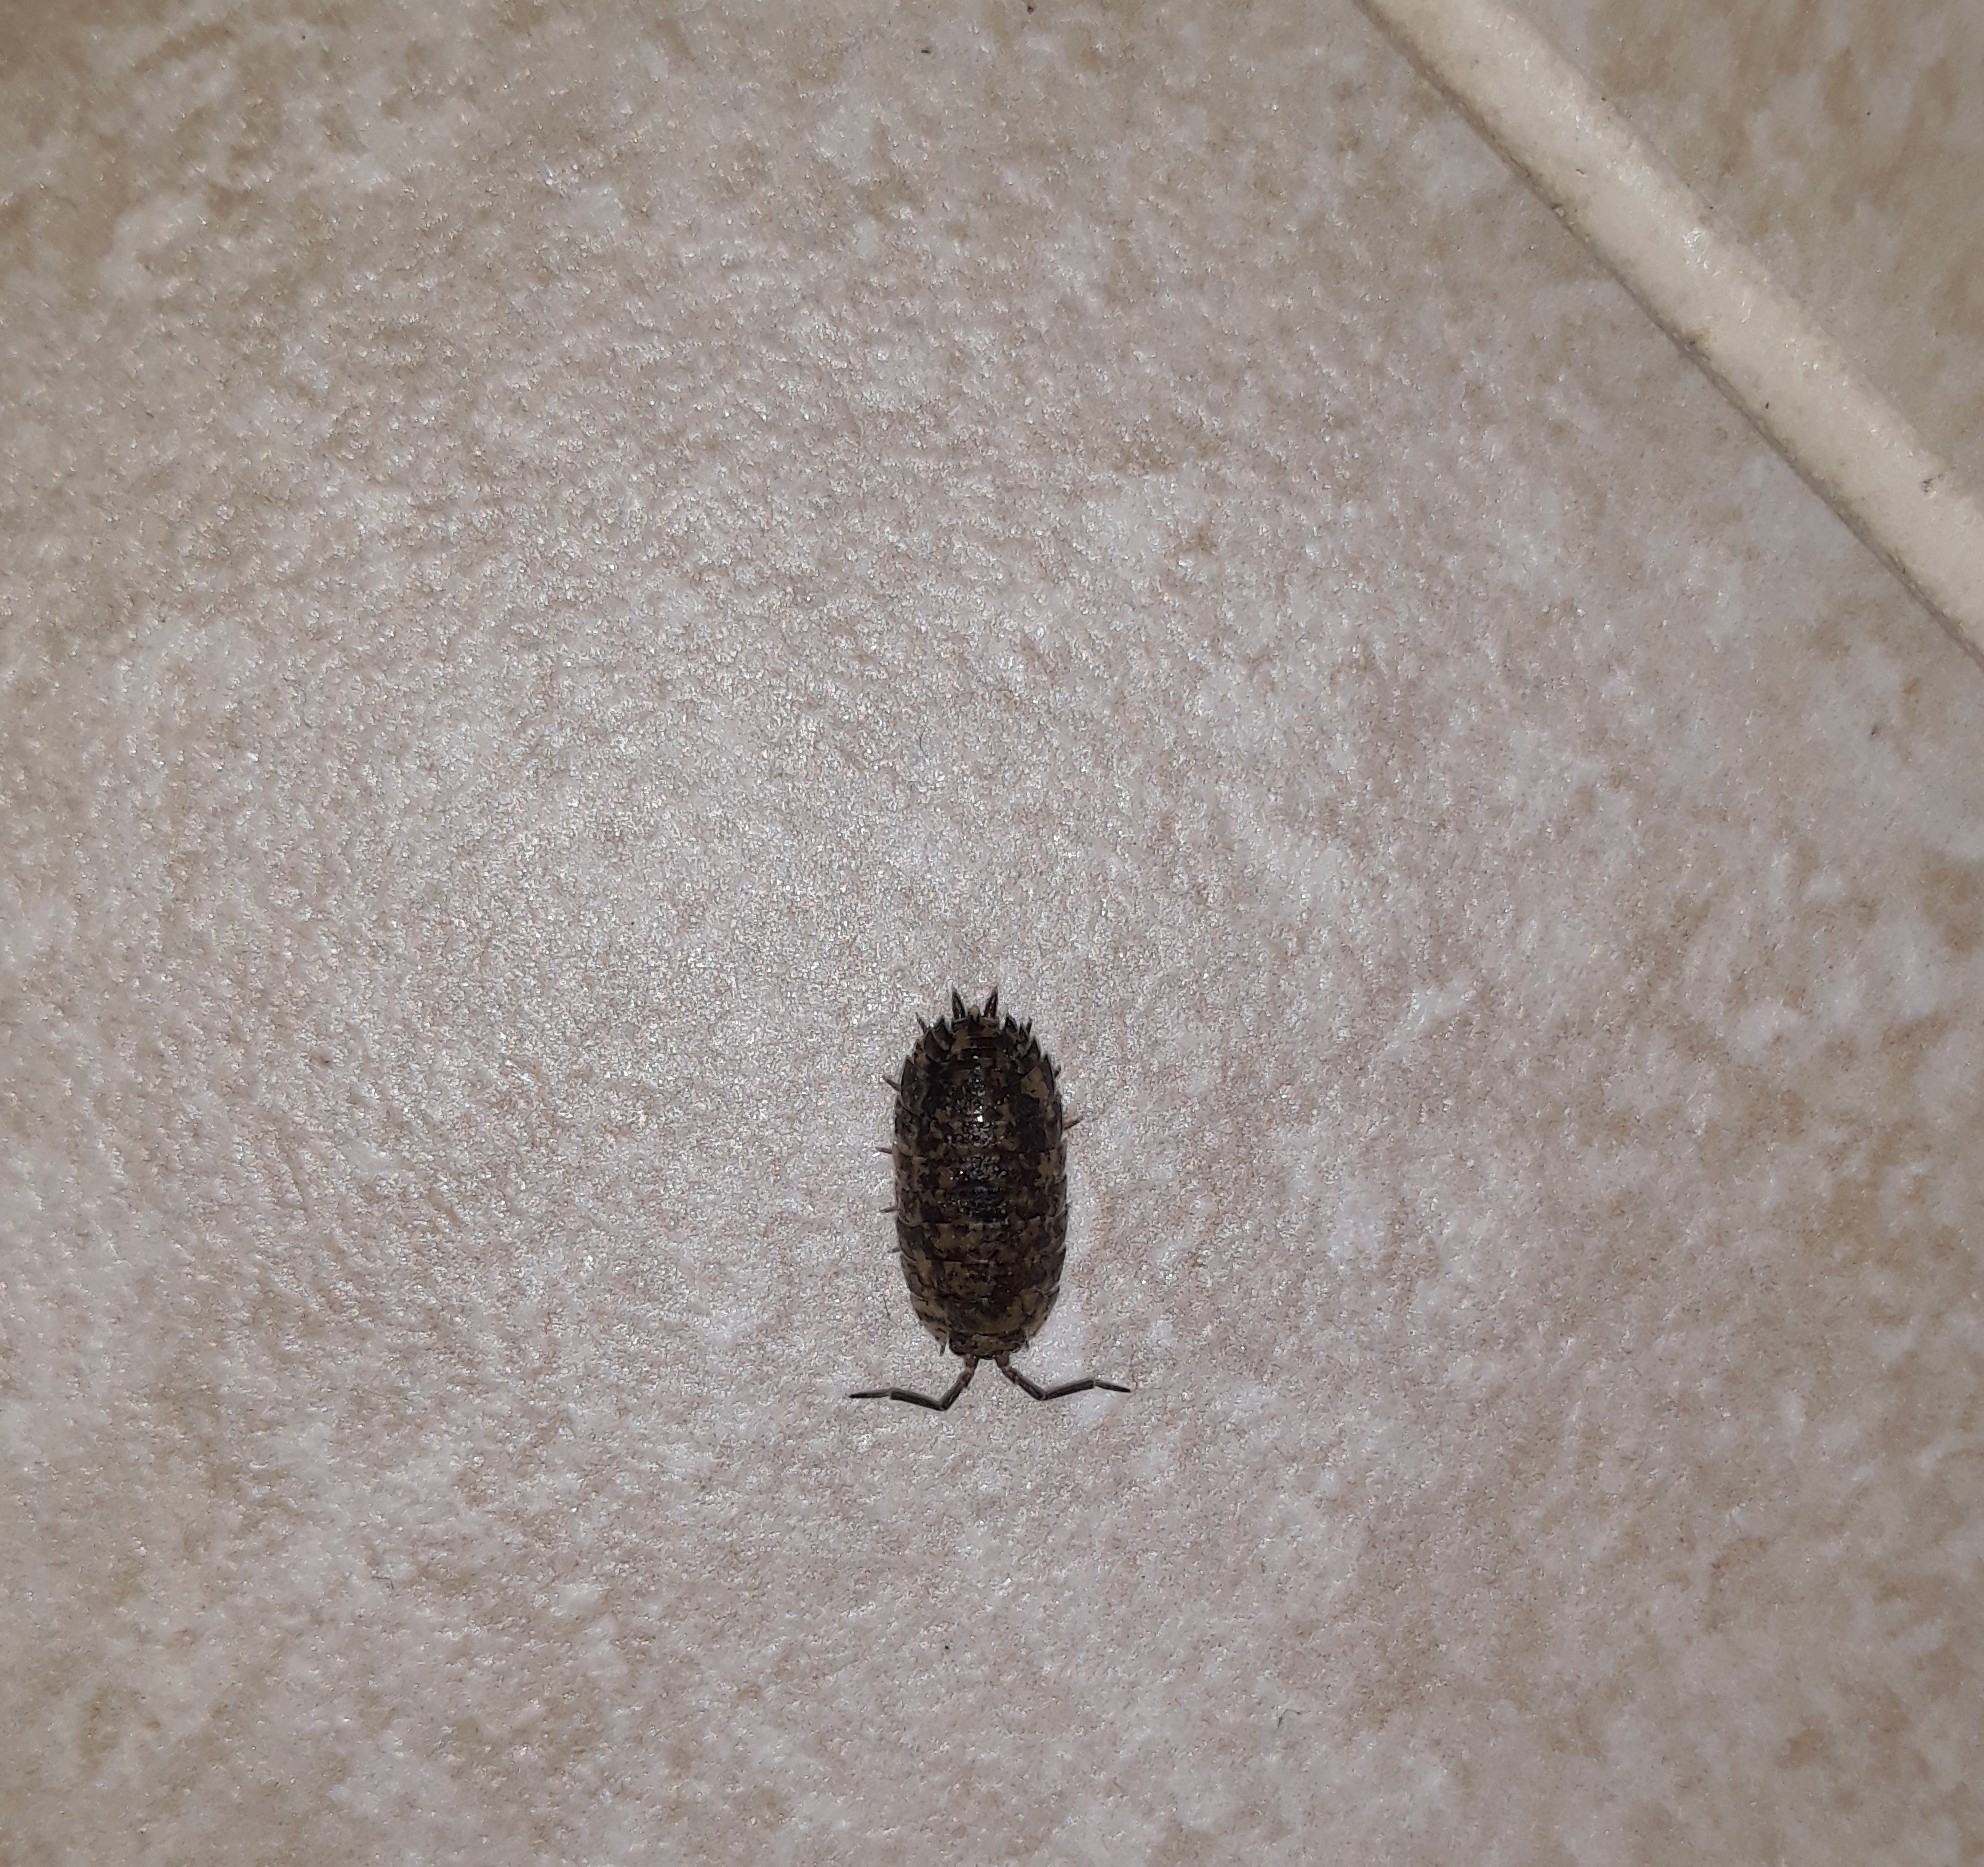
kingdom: Animalia
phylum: Arthropoda
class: Malacostraca
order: Isopoda
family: Porcellionidae
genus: Porcellio
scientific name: Porcellio scaber
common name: Common rough woodlouse
